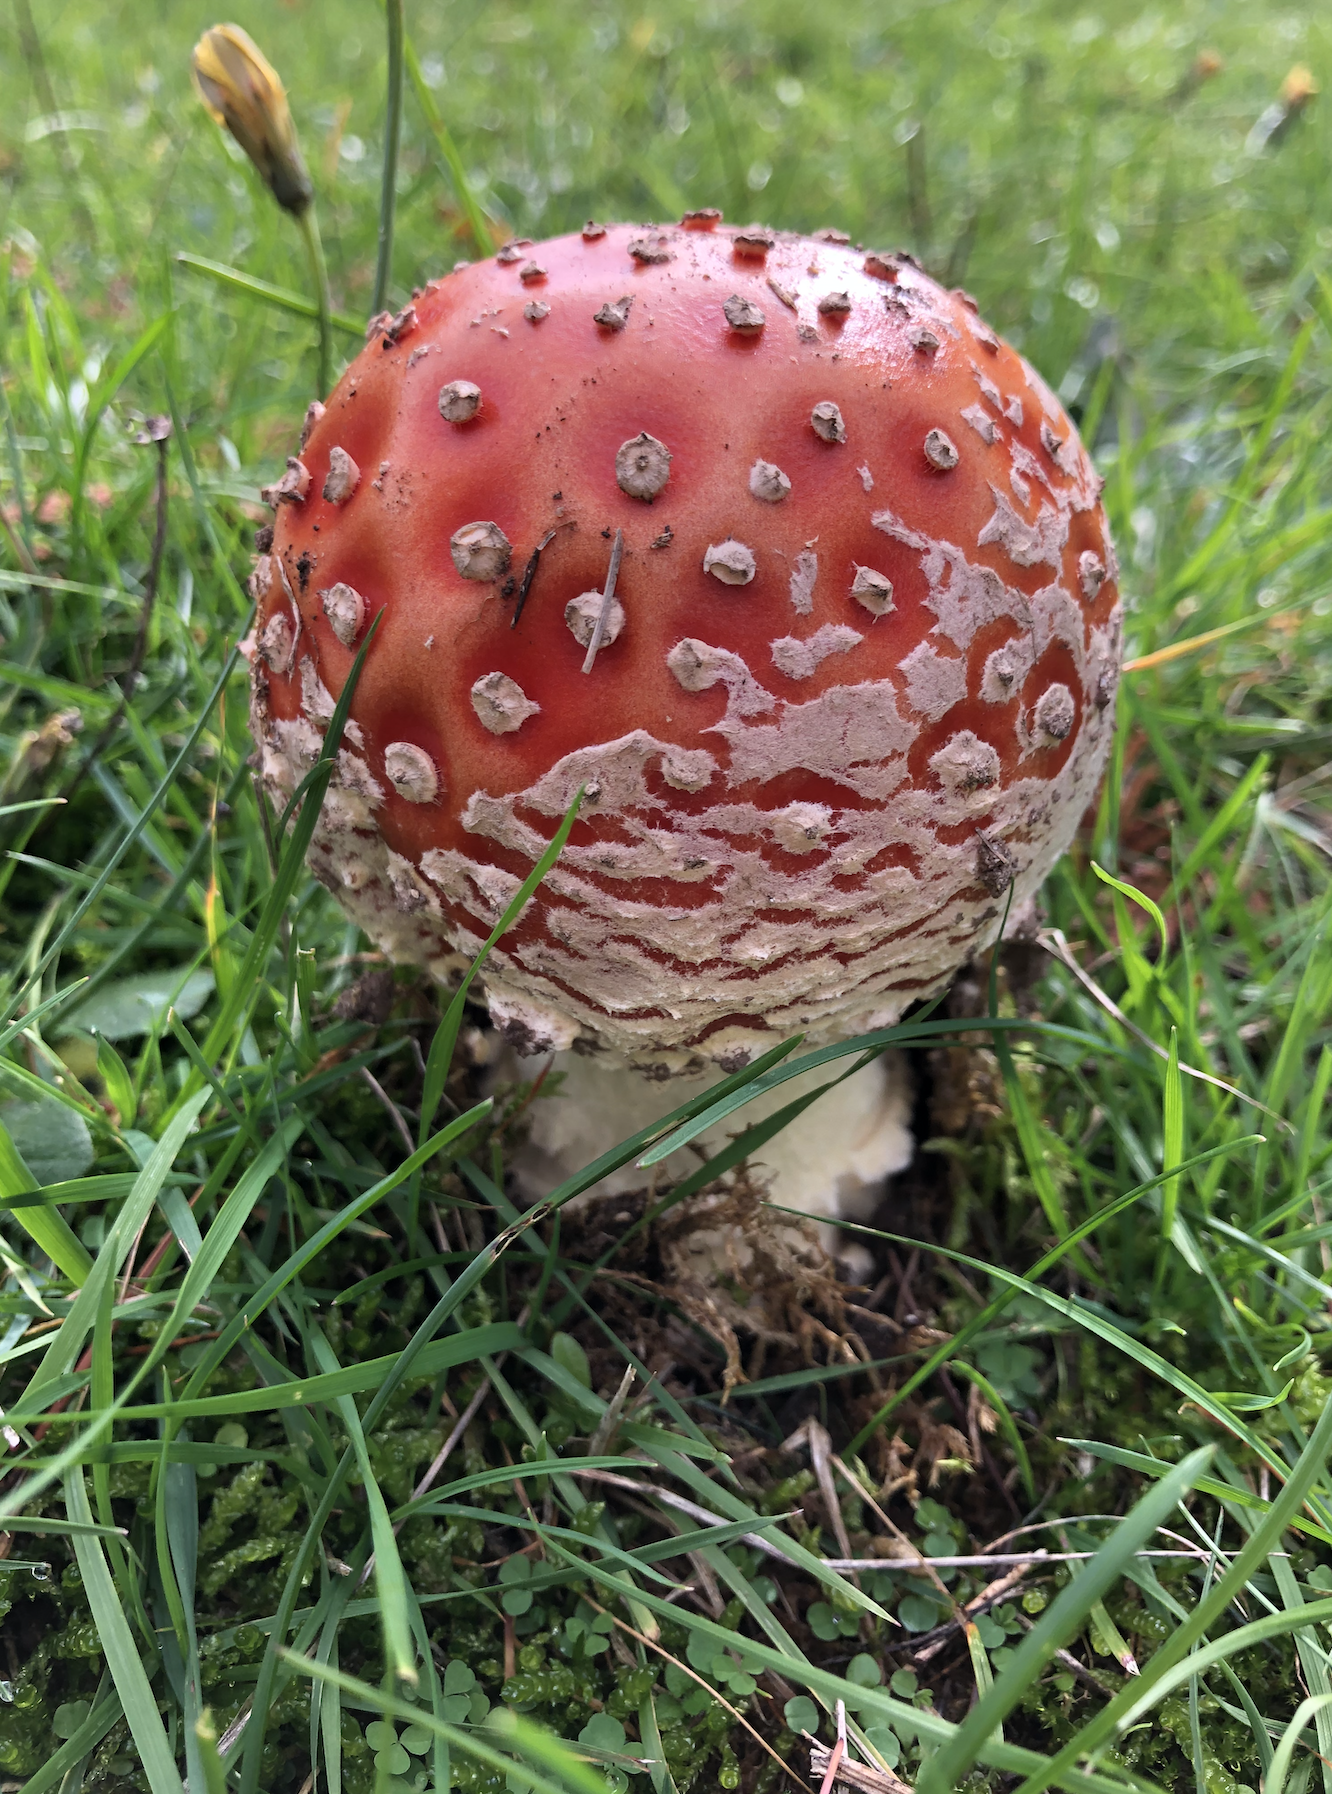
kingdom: Fungi
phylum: Basidiomycota
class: Agaricomycetes
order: Agaricales
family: Amanitaceae
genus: Amanita
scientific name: Amanita muscaria
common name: Fly agaric
